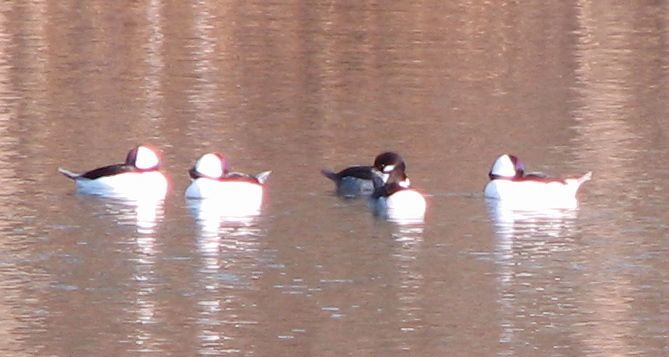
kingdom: Animalia
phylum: Chordata
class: Aves
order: Anseriformes
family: Anatidae
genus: Bucephala
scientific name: Bucephala albeola
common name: Bufflehead
